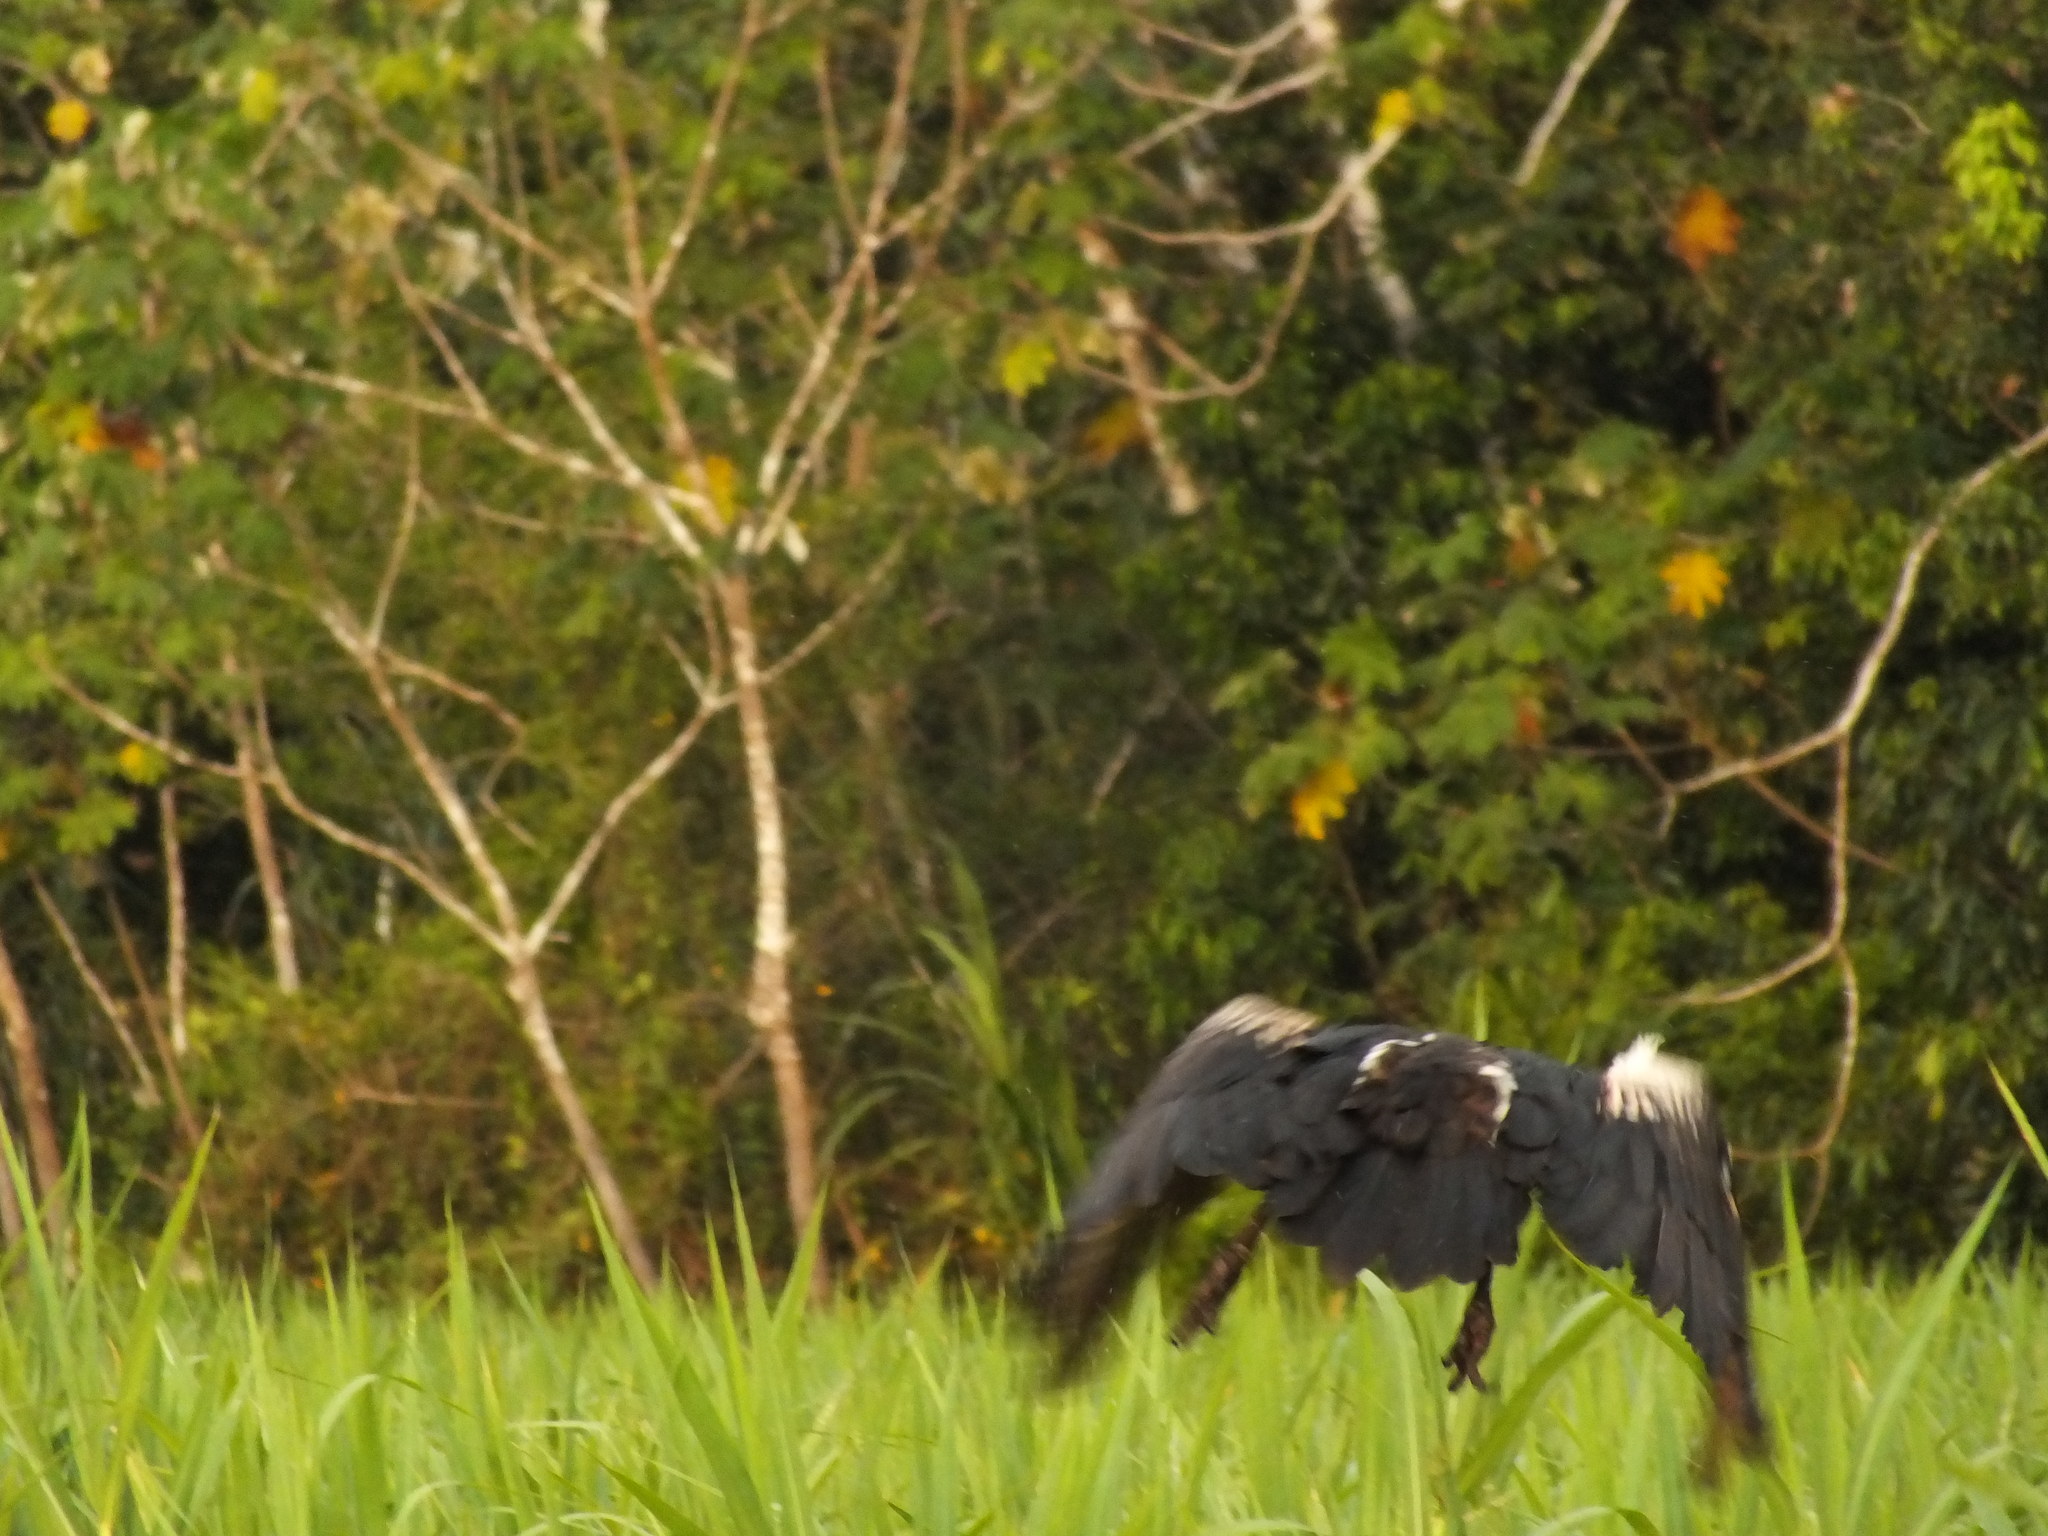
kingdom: Animalia
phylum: Chordata
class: Aves
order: Anseriformes
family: Anhimidae
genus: Anhima
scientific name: Anhima cornuta
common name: Horned screamer
